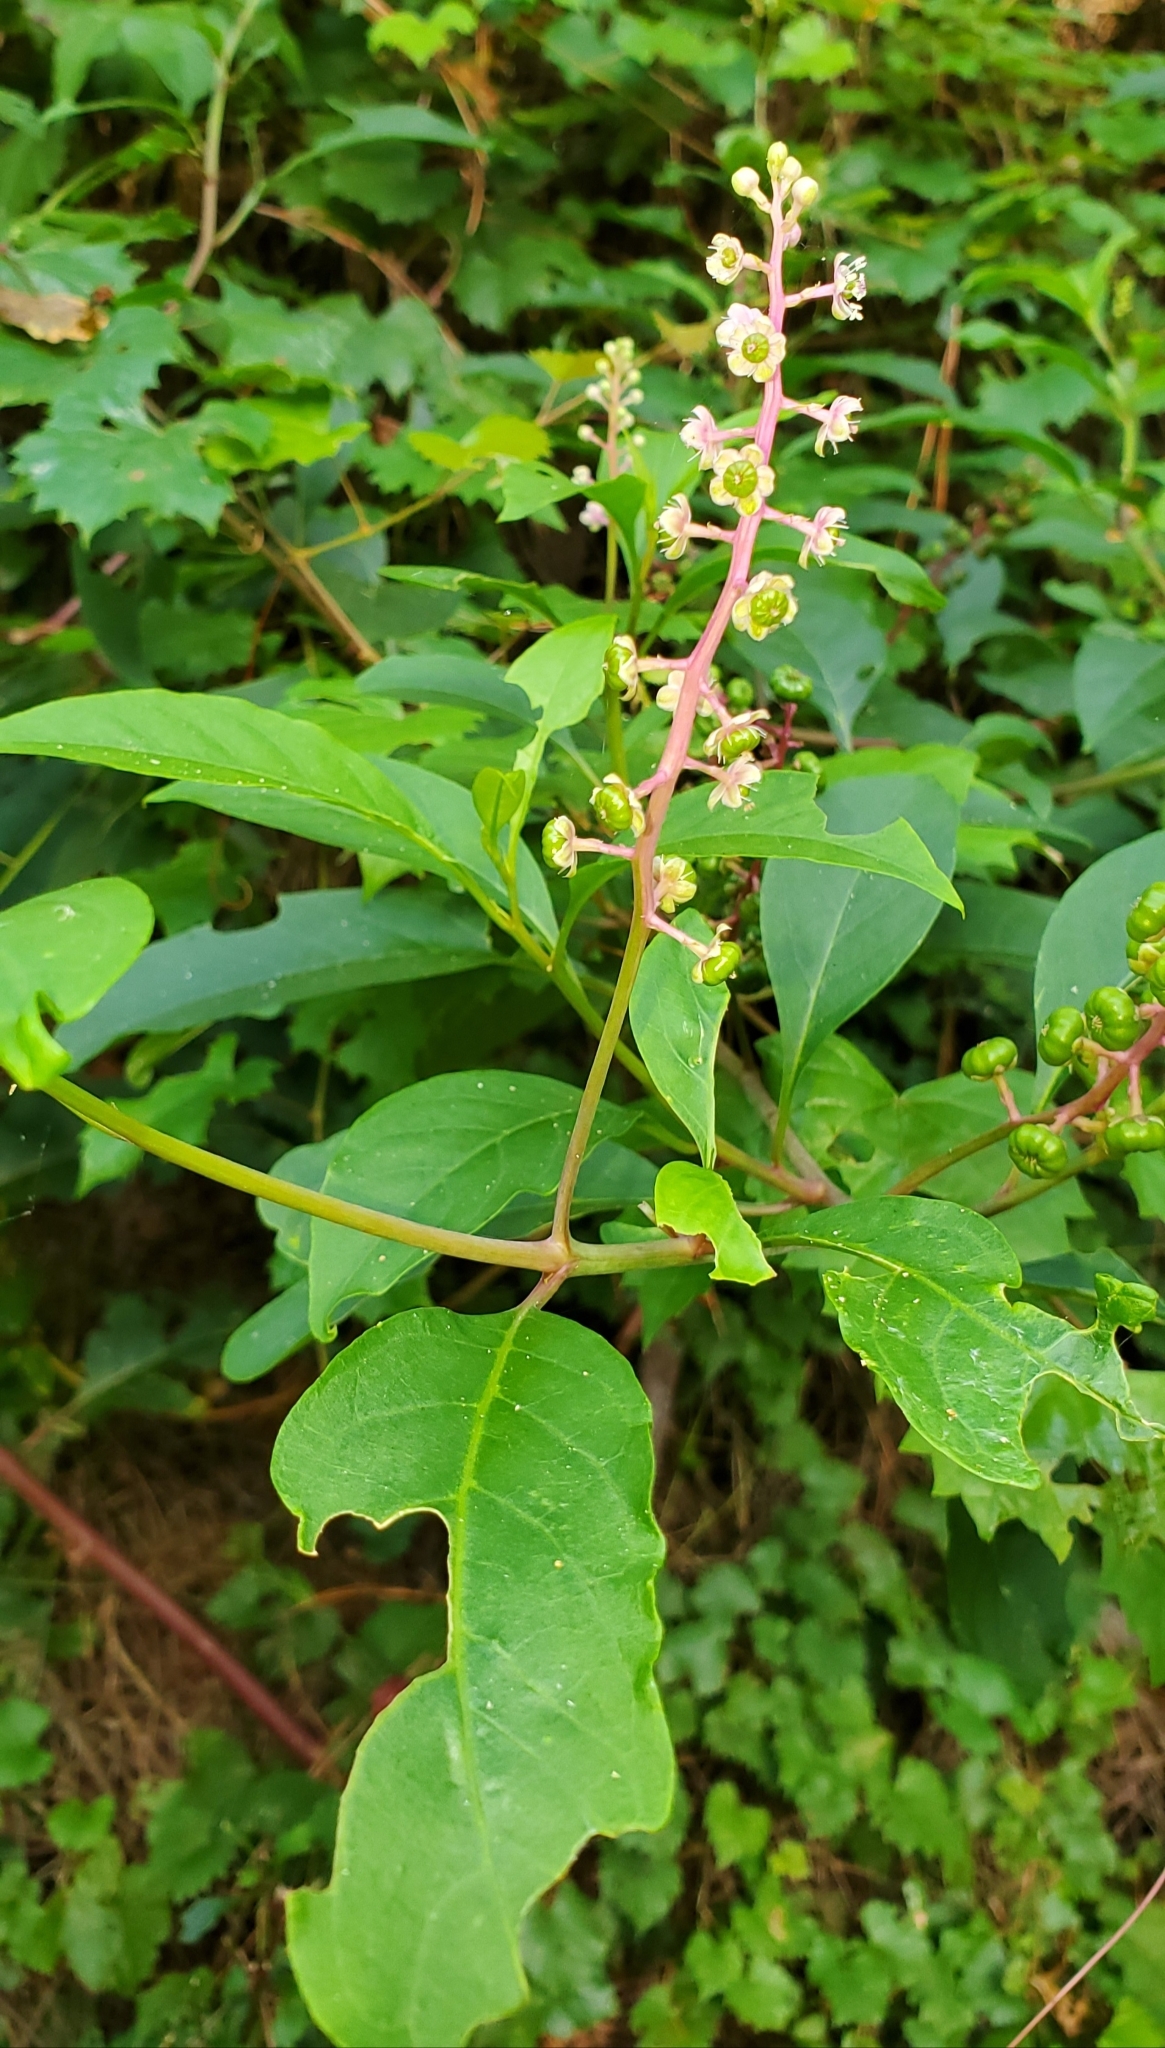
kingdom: Plantae
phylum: Tracheophyta
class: Magnoliopsida
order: Caryophyllales
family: Phytolaccaceae
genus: Phytolacca
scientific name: Phytolacca americana
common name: American pokeweed
